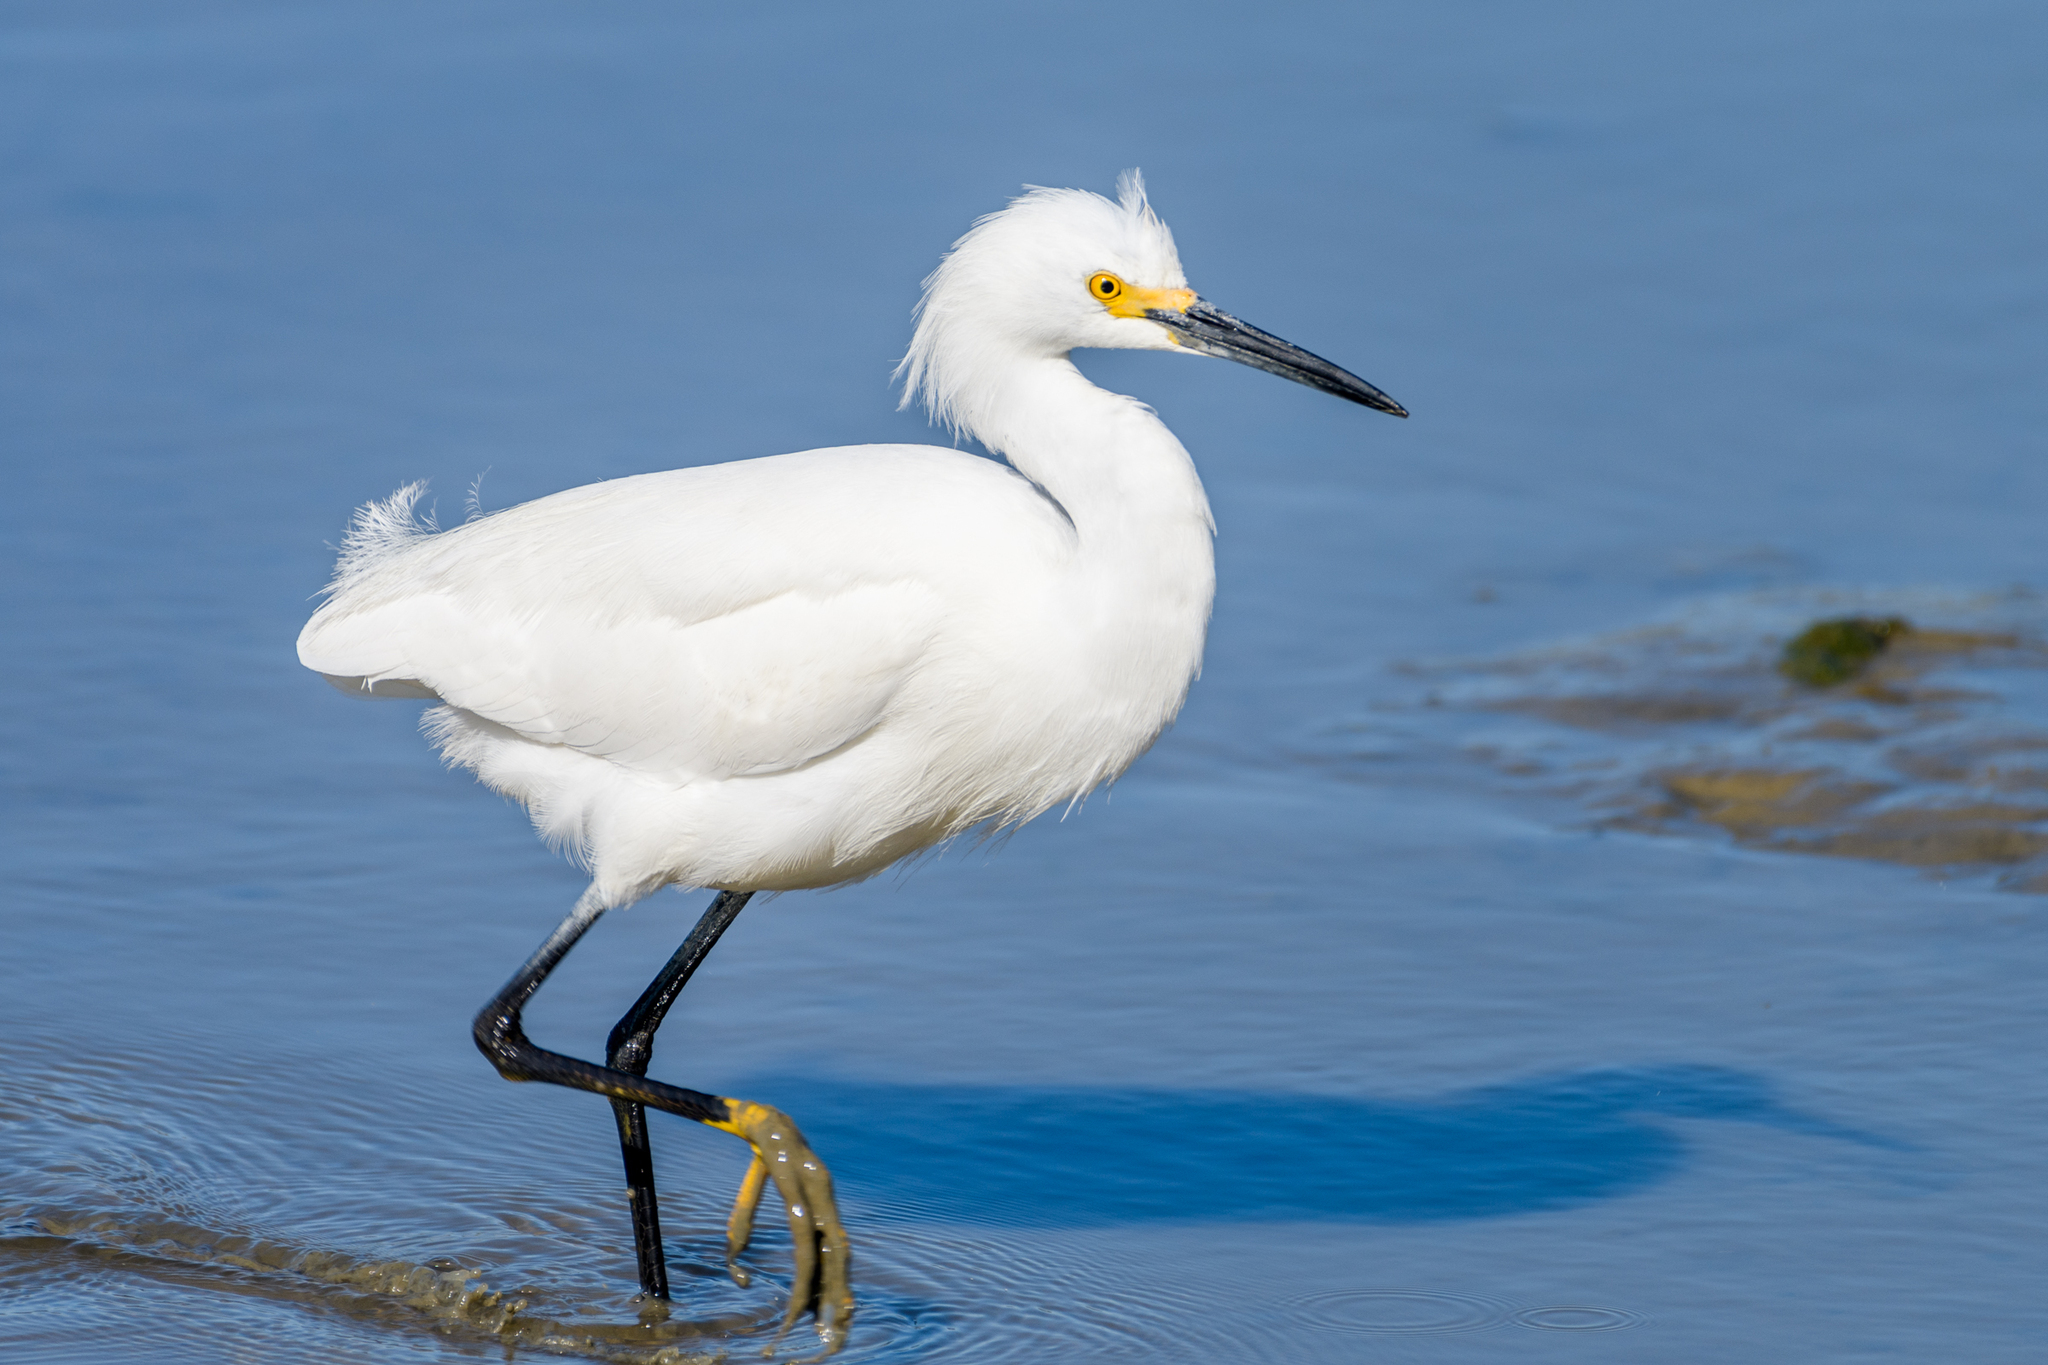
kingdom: Animalia
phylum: Chordata
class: Aves
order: Pelecaniformes
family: Ardeidae
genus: Egretta
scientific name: Egretta thula
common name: Snowy egret
